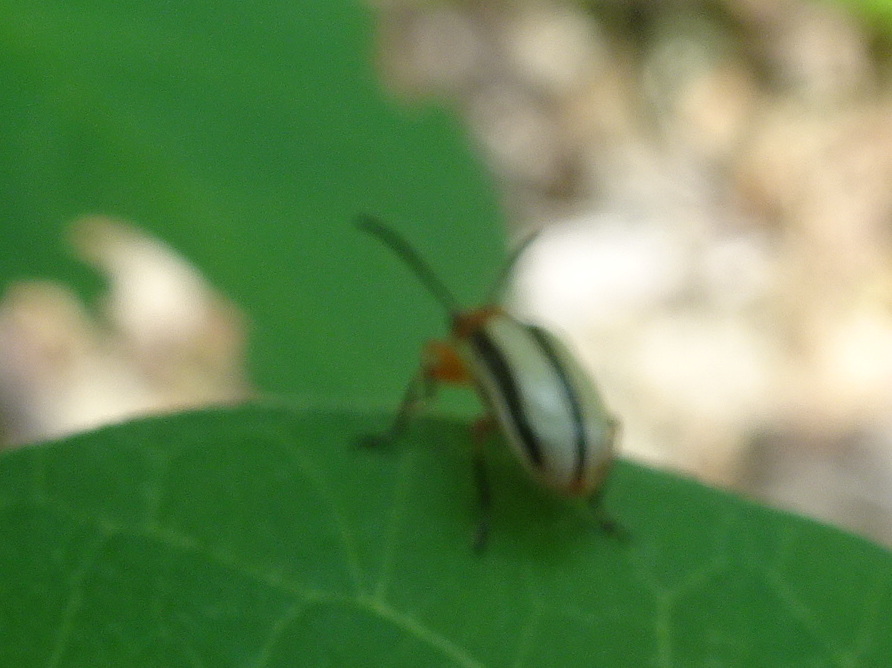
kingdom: Animalia
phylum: Arthropoda
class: Insecta
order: Coleoptera
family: Chrysomelidae
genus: Lema
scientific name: Lema daturaphila
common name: Leaf beetle
